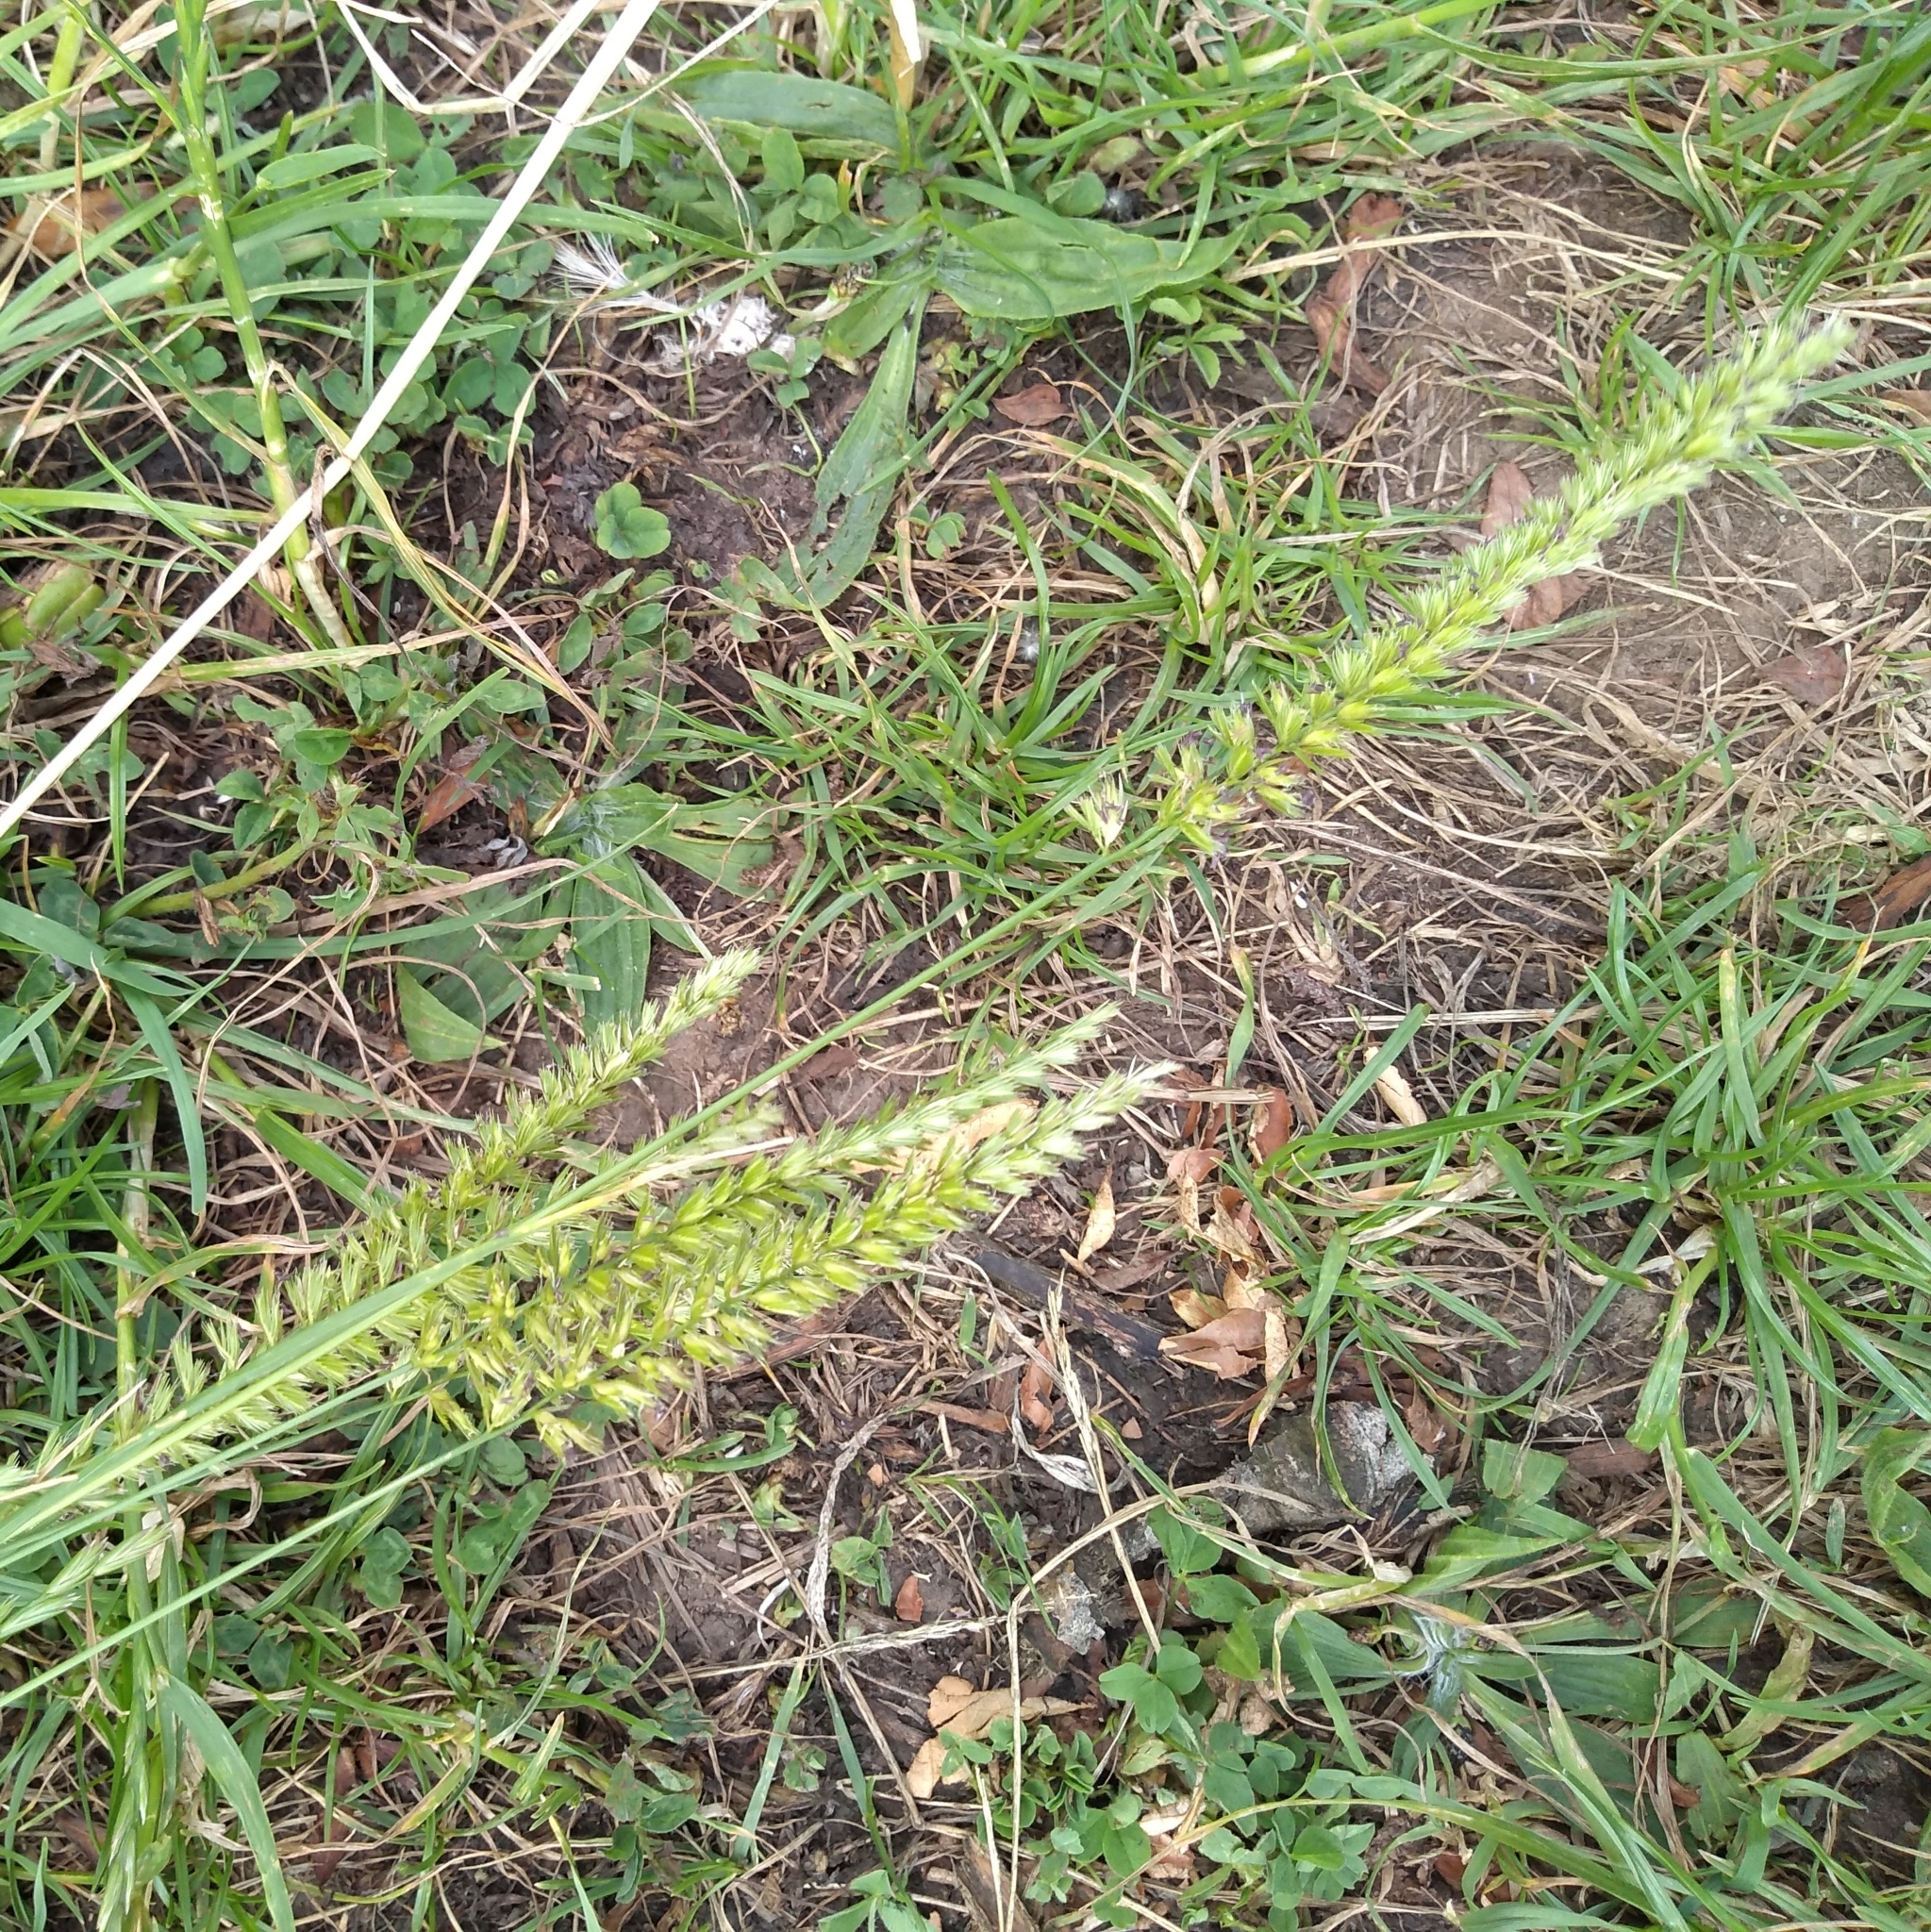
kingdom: Plantae
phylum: Tracheophyta
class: Liliopsida
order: Poales
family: Poaceae
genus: Cynosurus
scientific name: Cynosurus cristatus
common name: Crested dog's-tail
